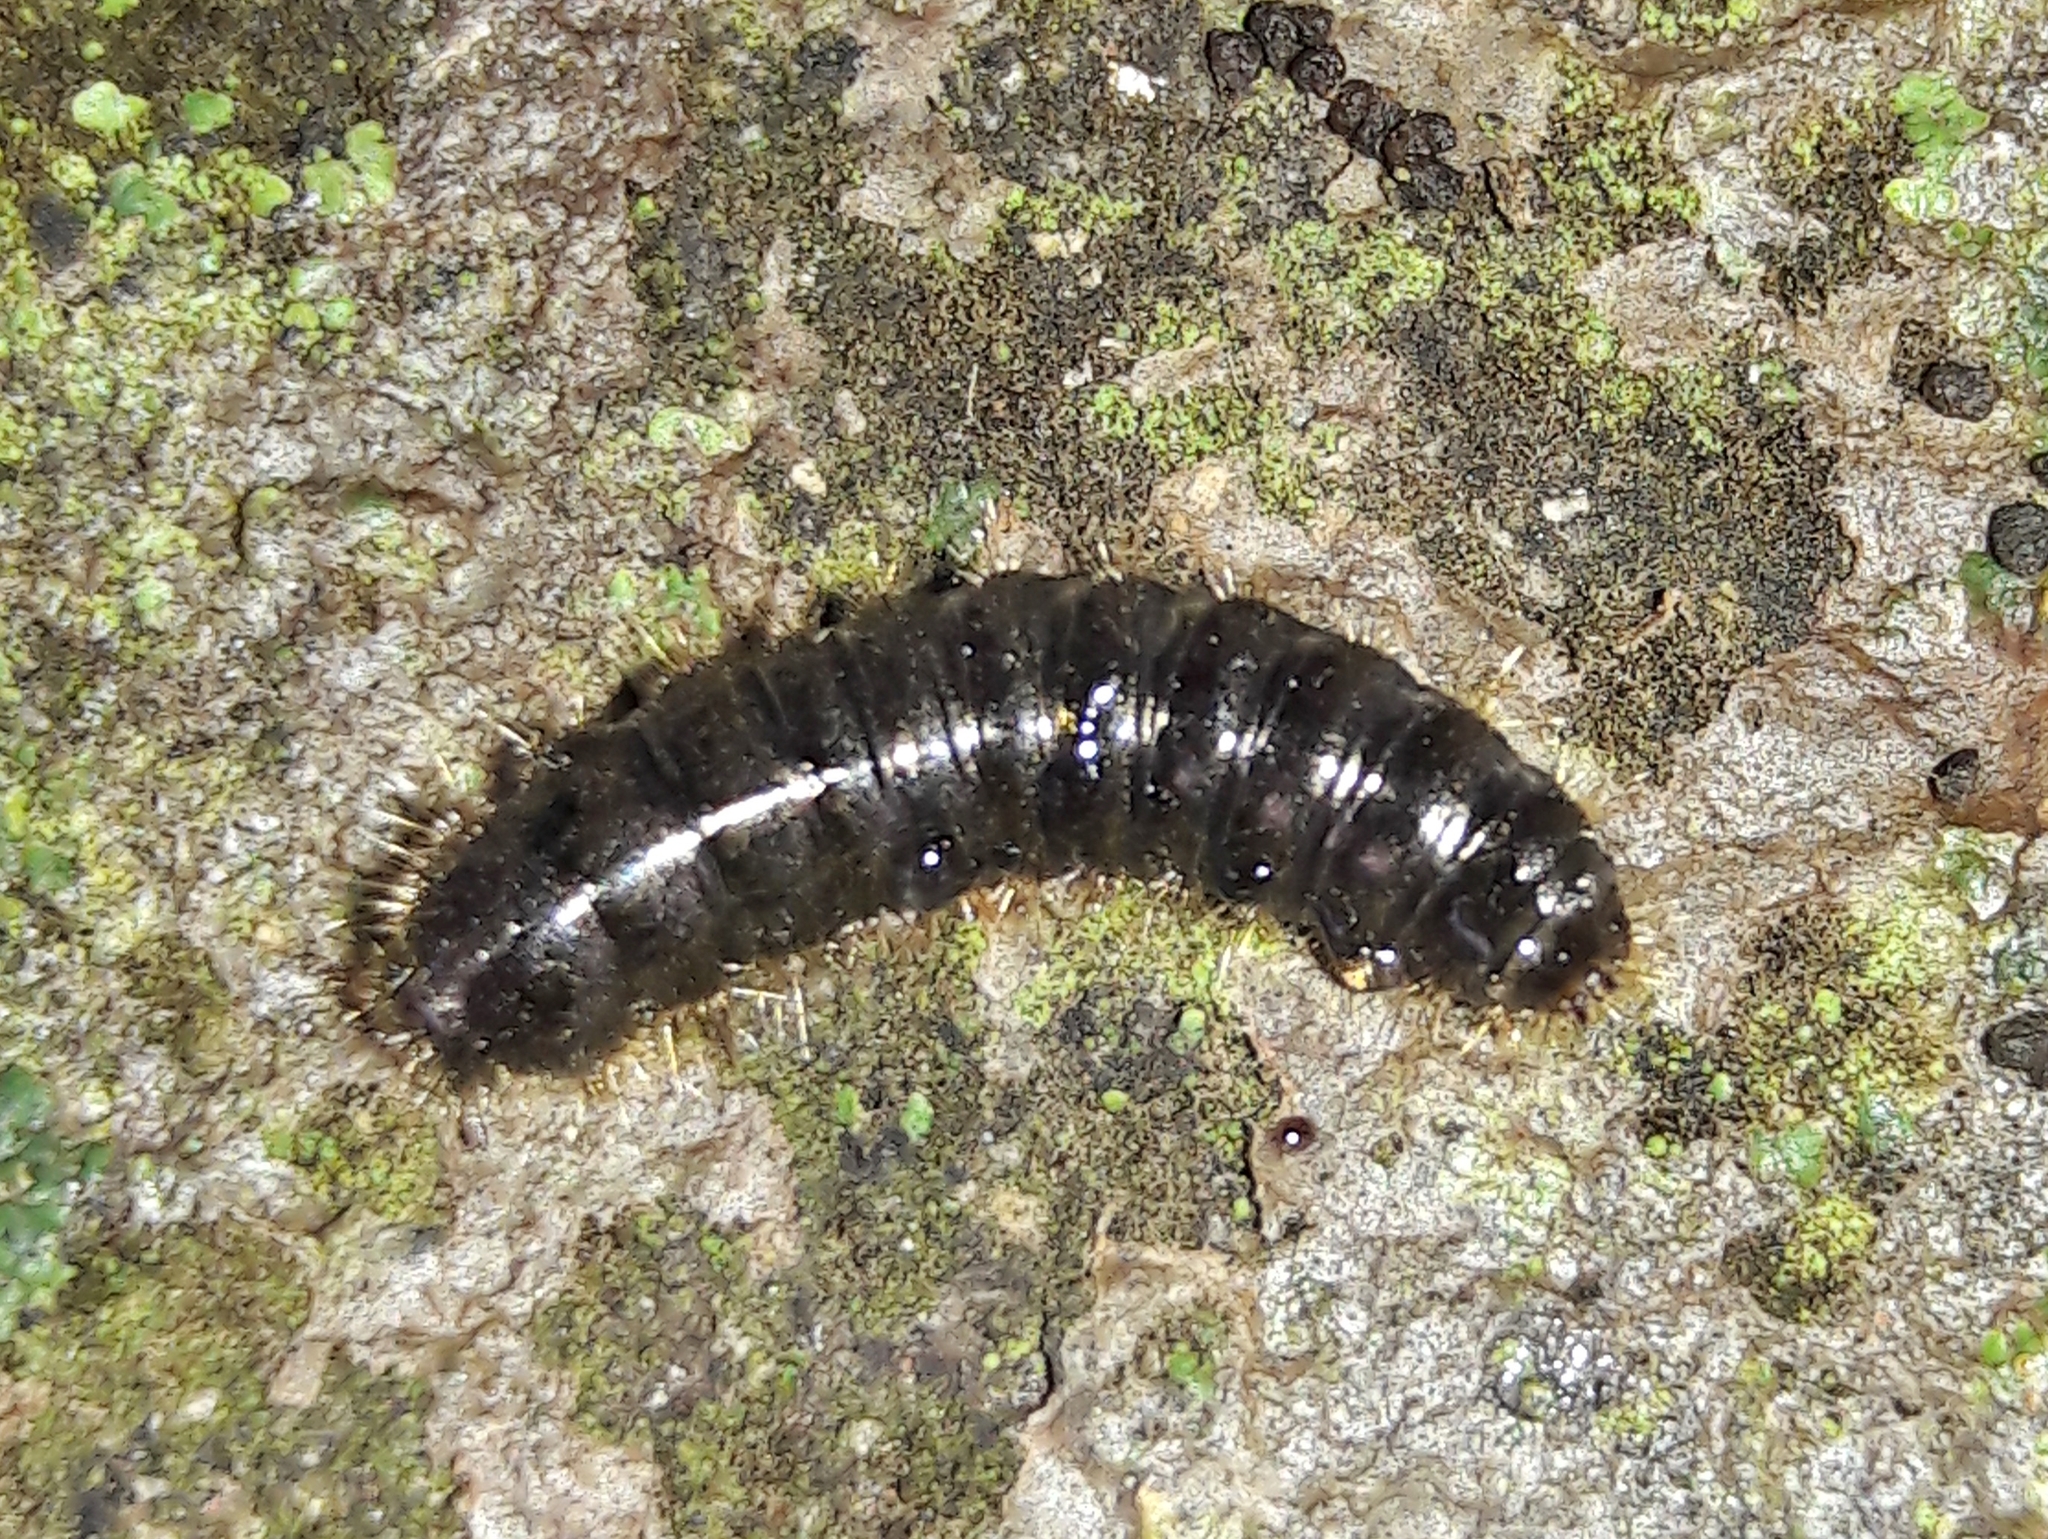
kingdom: Animalia
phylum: Arthropoda
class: Insecta
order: Coleoptera
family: Tenebrionidae
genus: Lagria
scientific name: Lagria villosa
